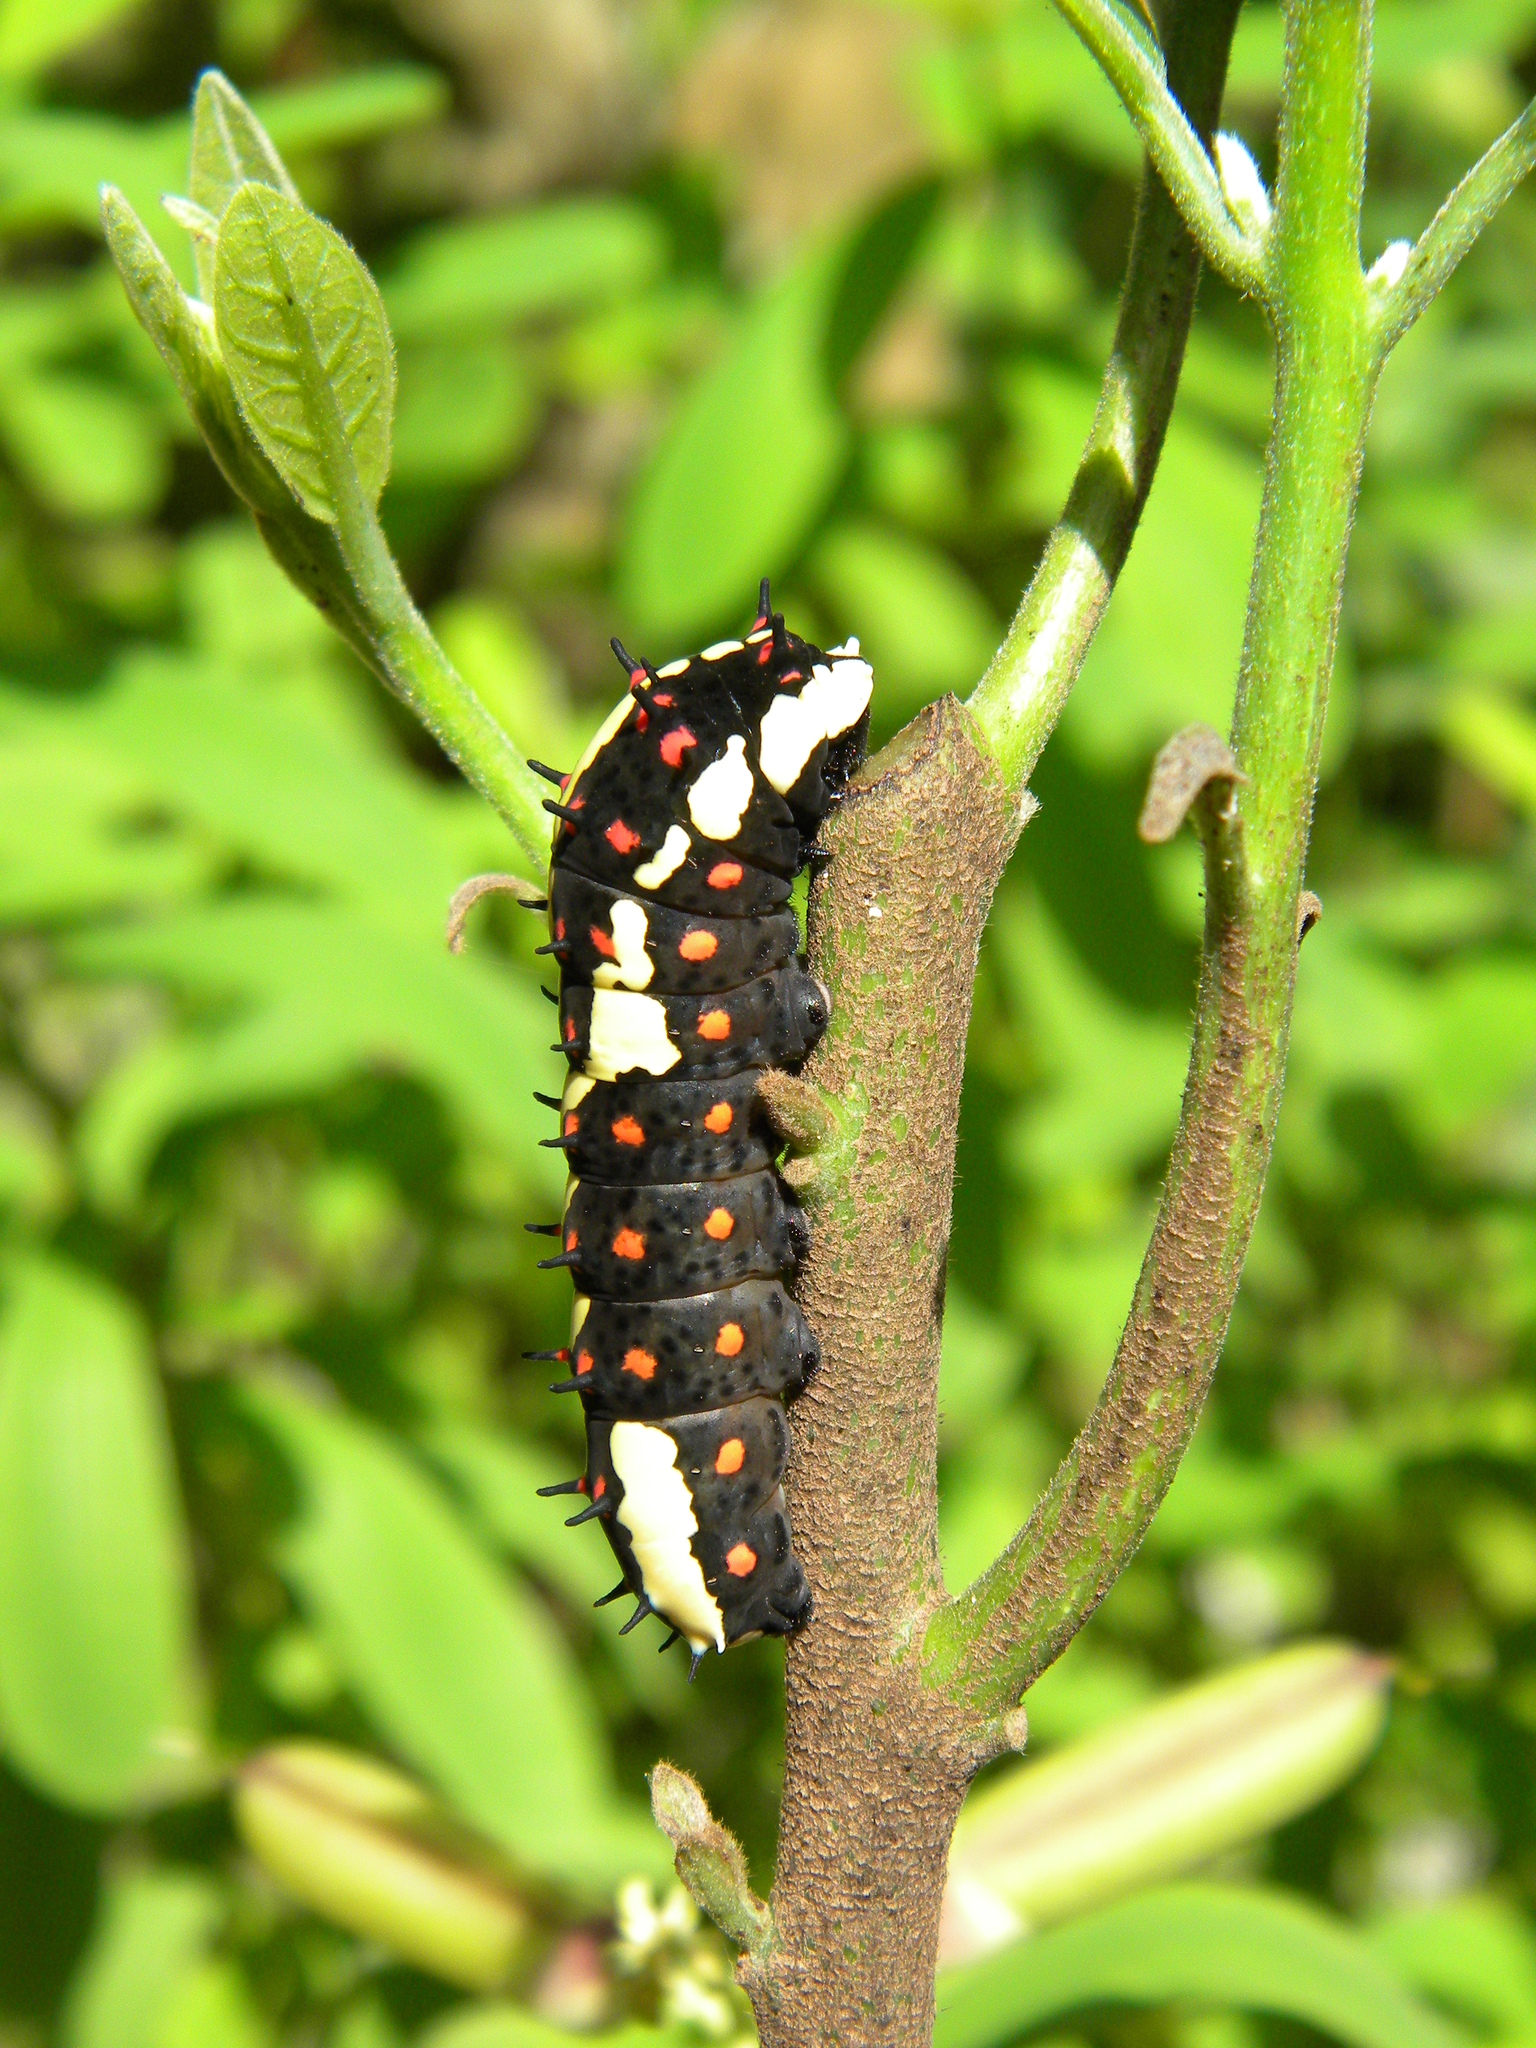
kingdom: Animalia
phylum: Arthropoda
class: Insecta
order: Lepidoptera
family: Papilionidae
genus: Chilasa
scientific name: Chilasa clytia
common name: Common mime
